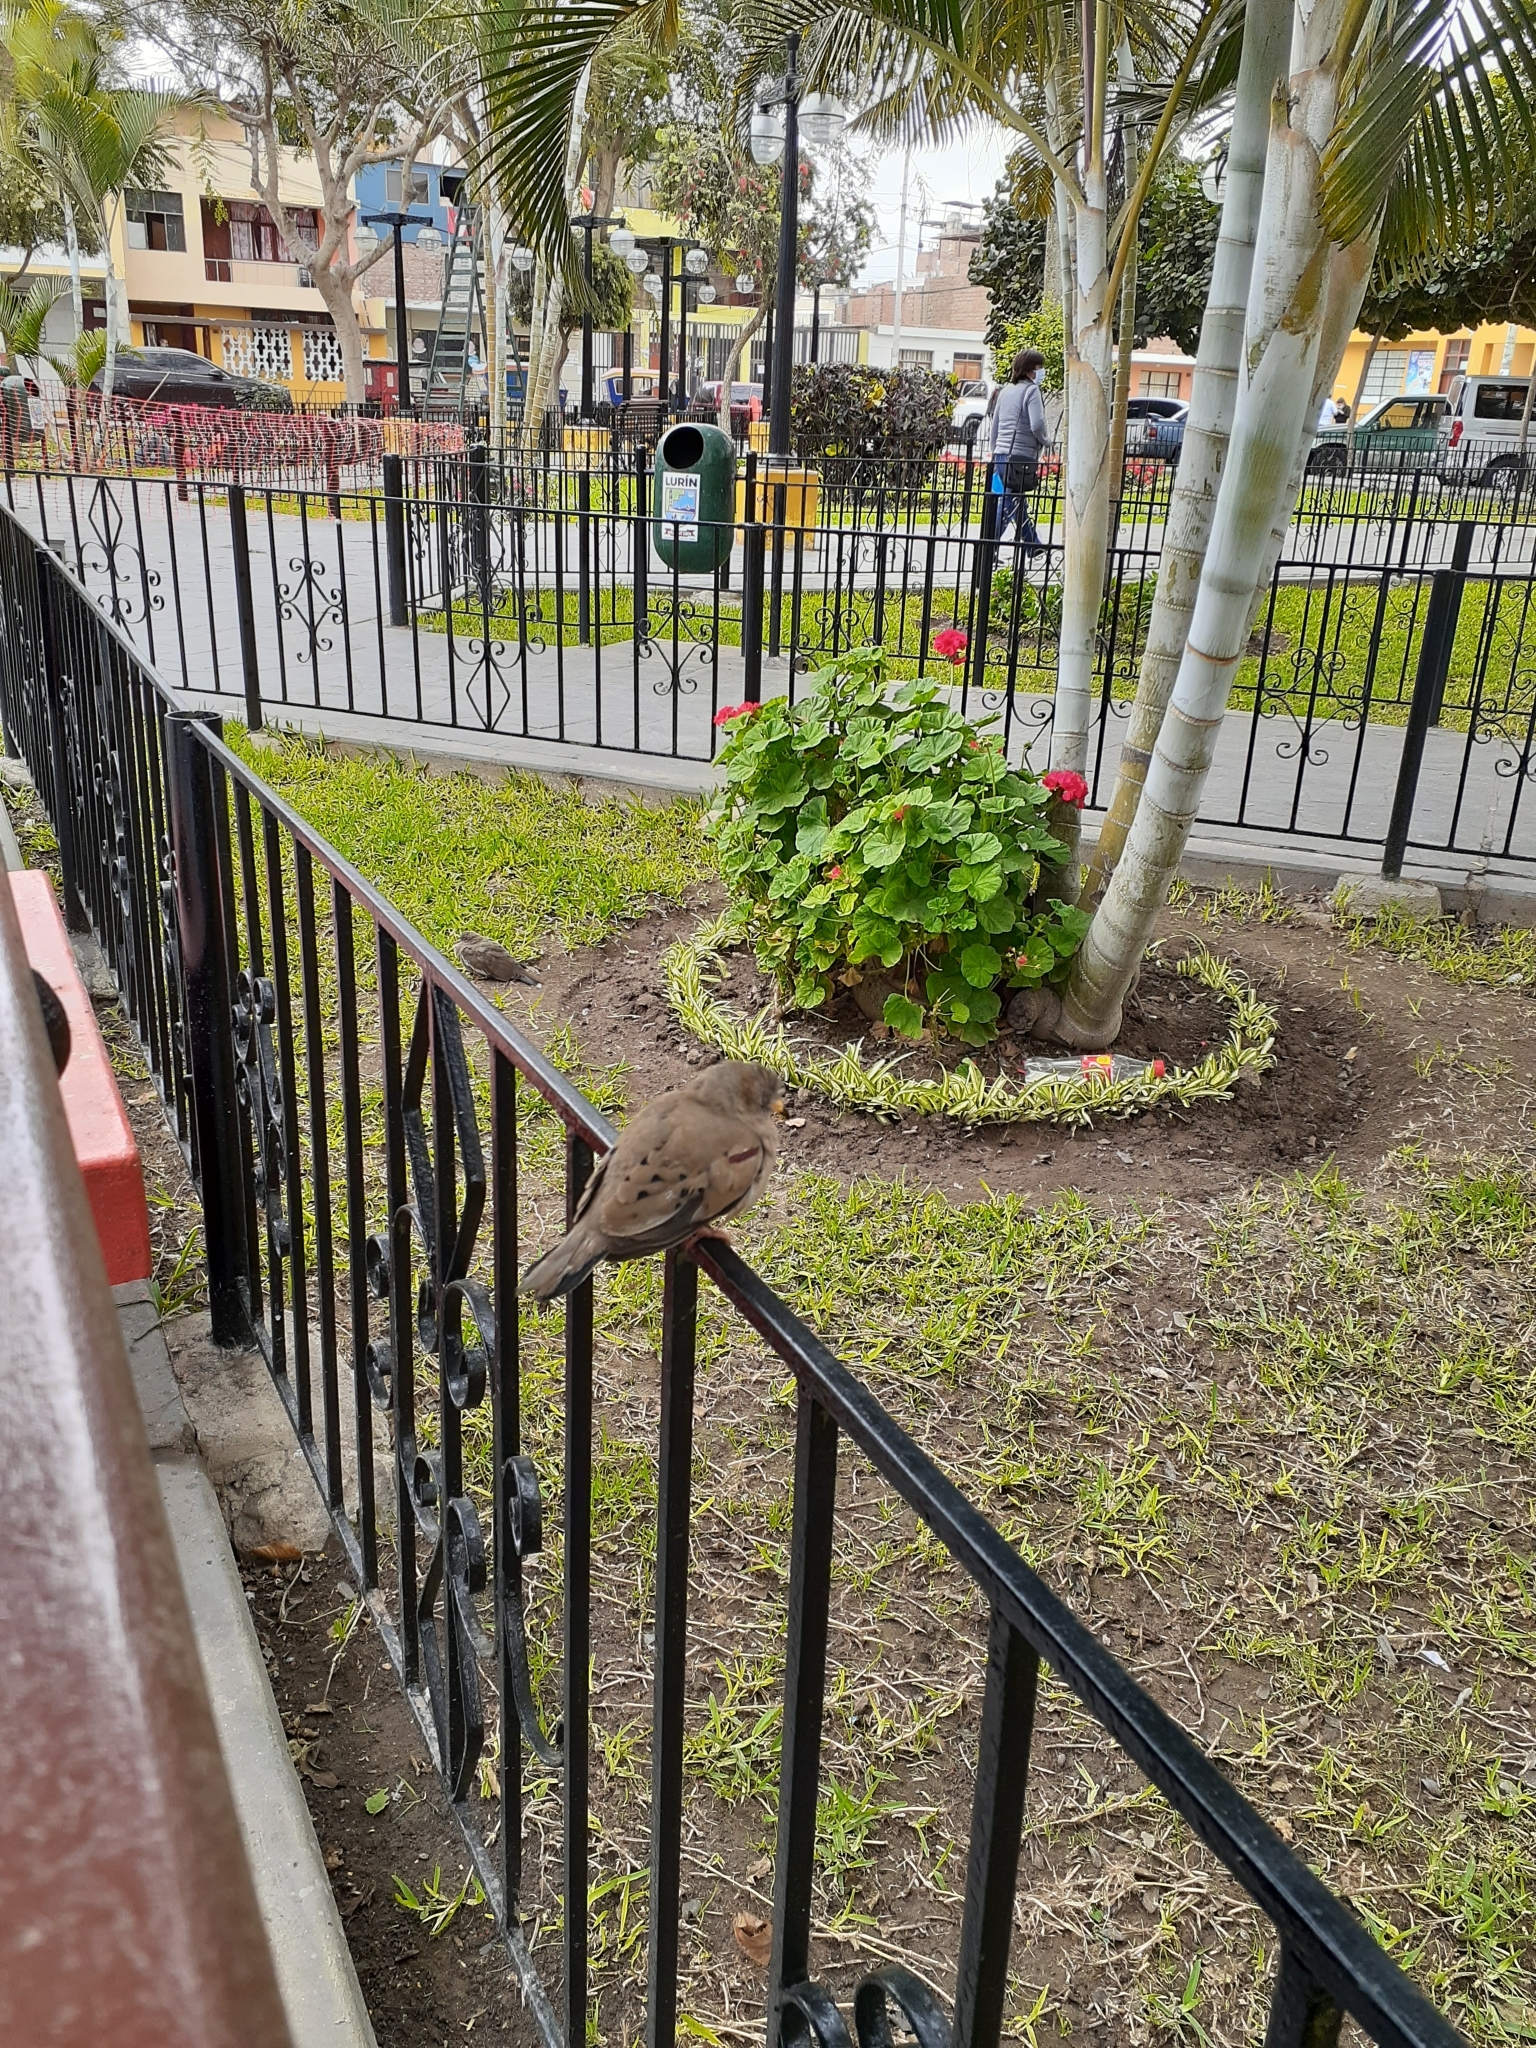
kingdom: Animalia
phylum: Chordata
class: Aves
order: Columbiformes
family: Columbidae
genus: Columbina
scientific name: Columbina cruziana
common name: Croaking ground dove
